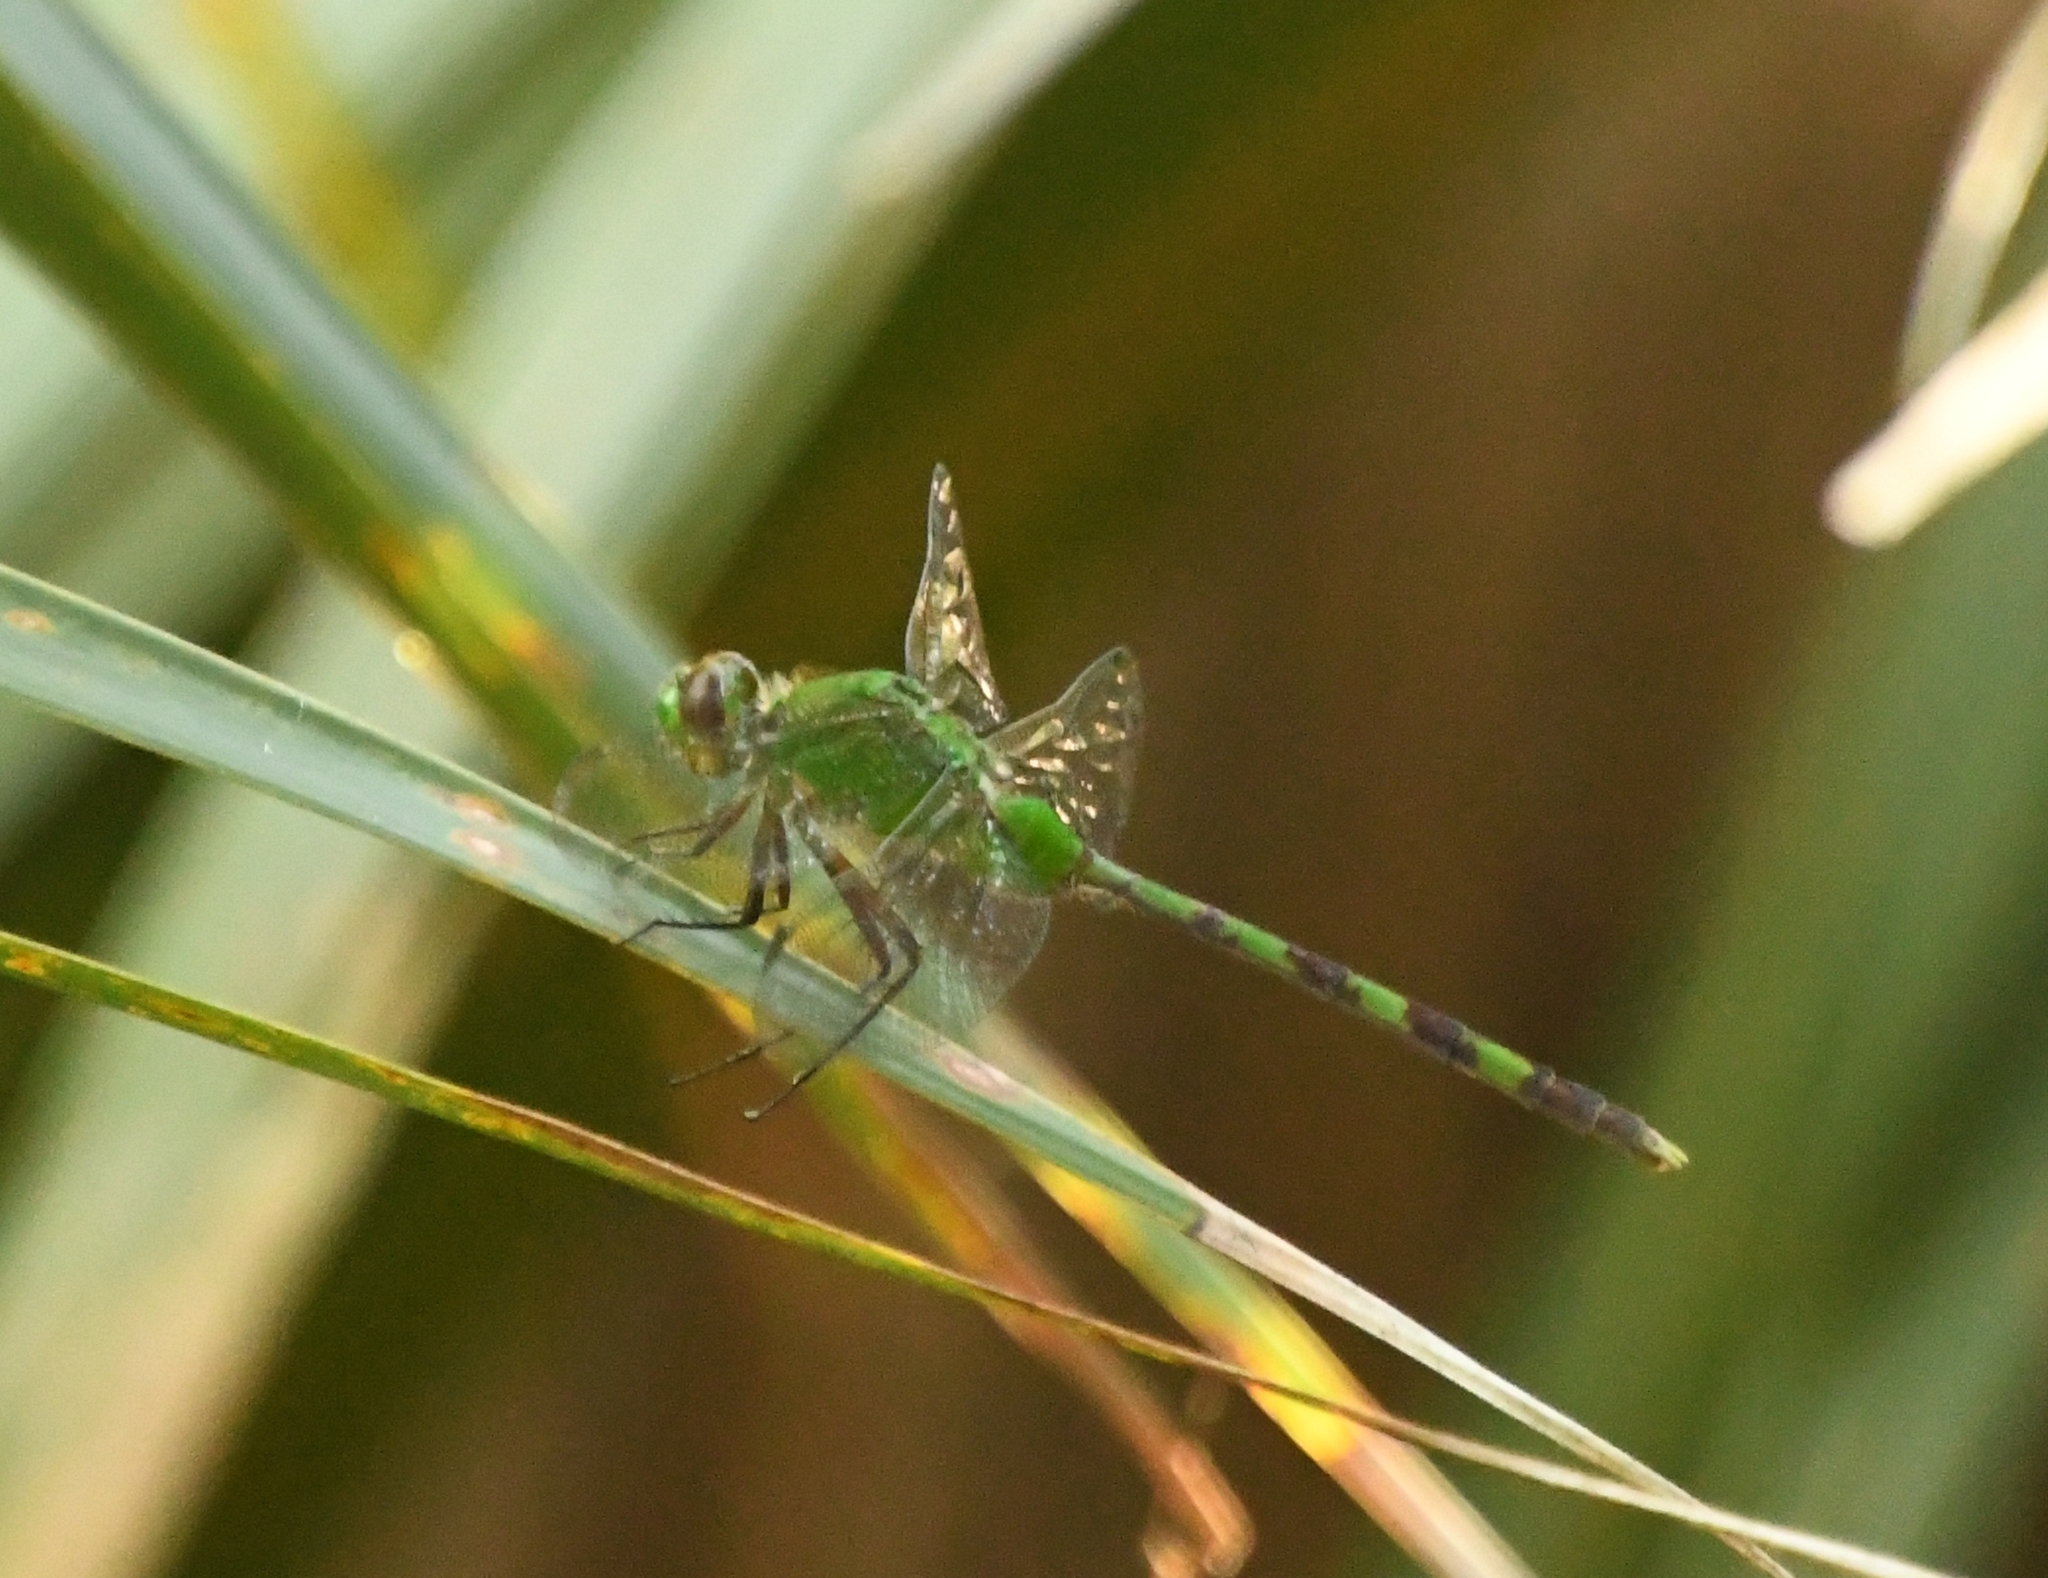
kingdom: Animalia
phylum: Arthropoda
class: Insecta
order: Odonata
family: Libellulidae
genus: Erythemis
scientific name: Erythemis vesiculosa
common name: Great pondhawk
